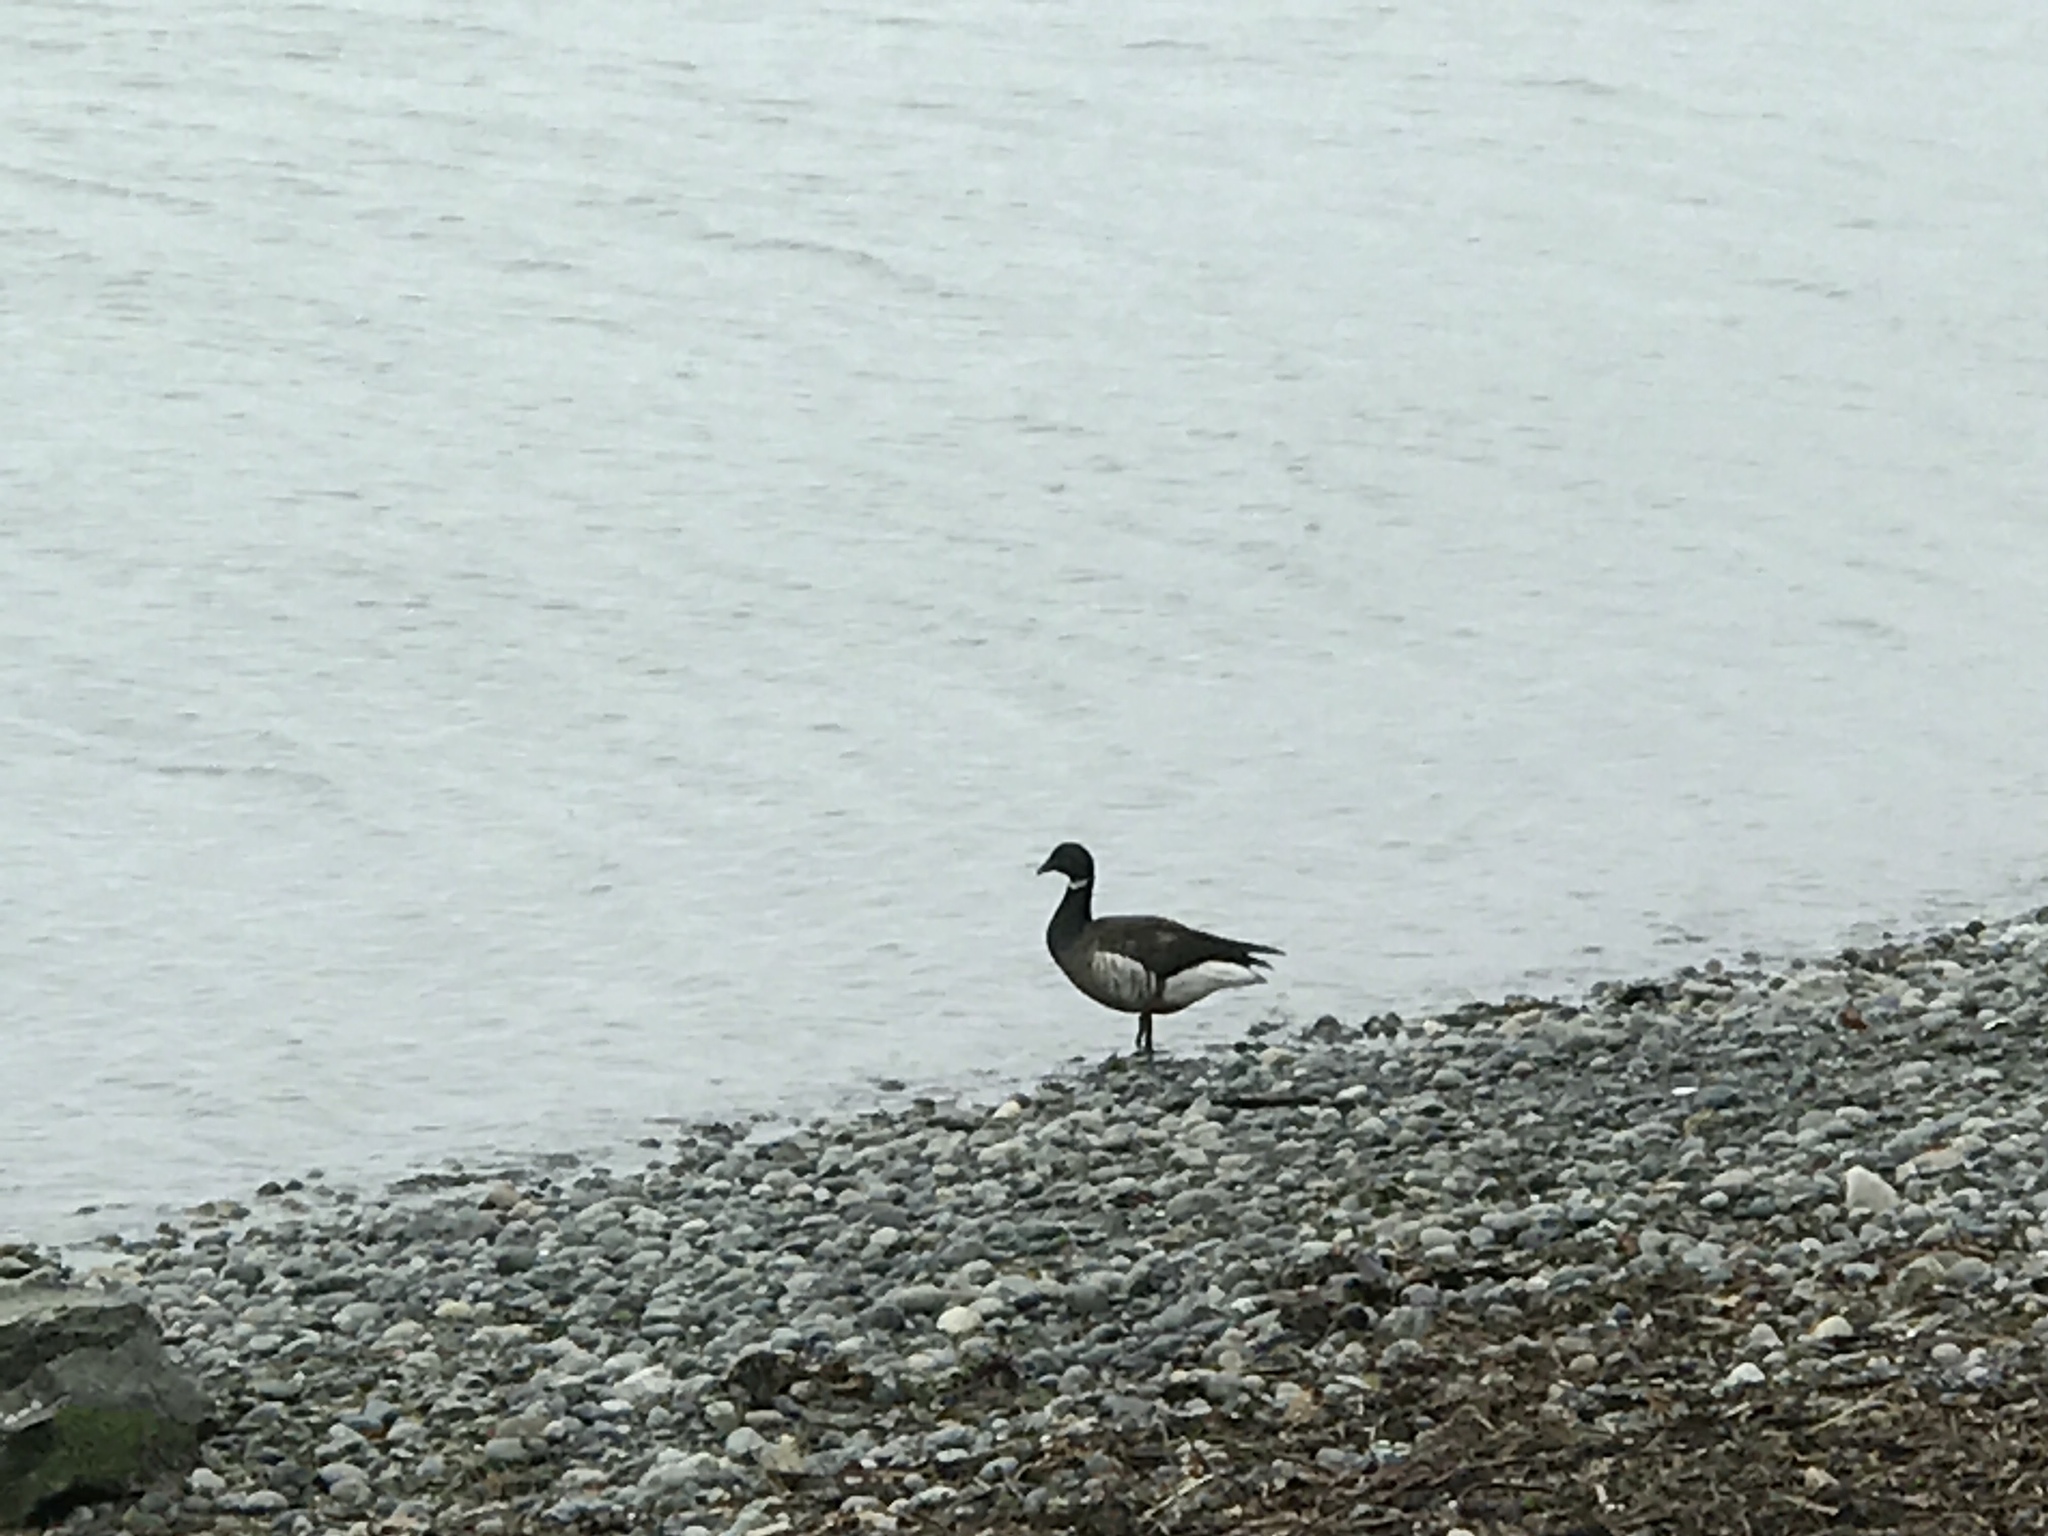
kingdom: Animalia
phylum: Chordata
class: Aves
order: Anseriformes
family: Anatidae
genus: Branta
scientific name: Branta bernicla
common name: Brant goose
